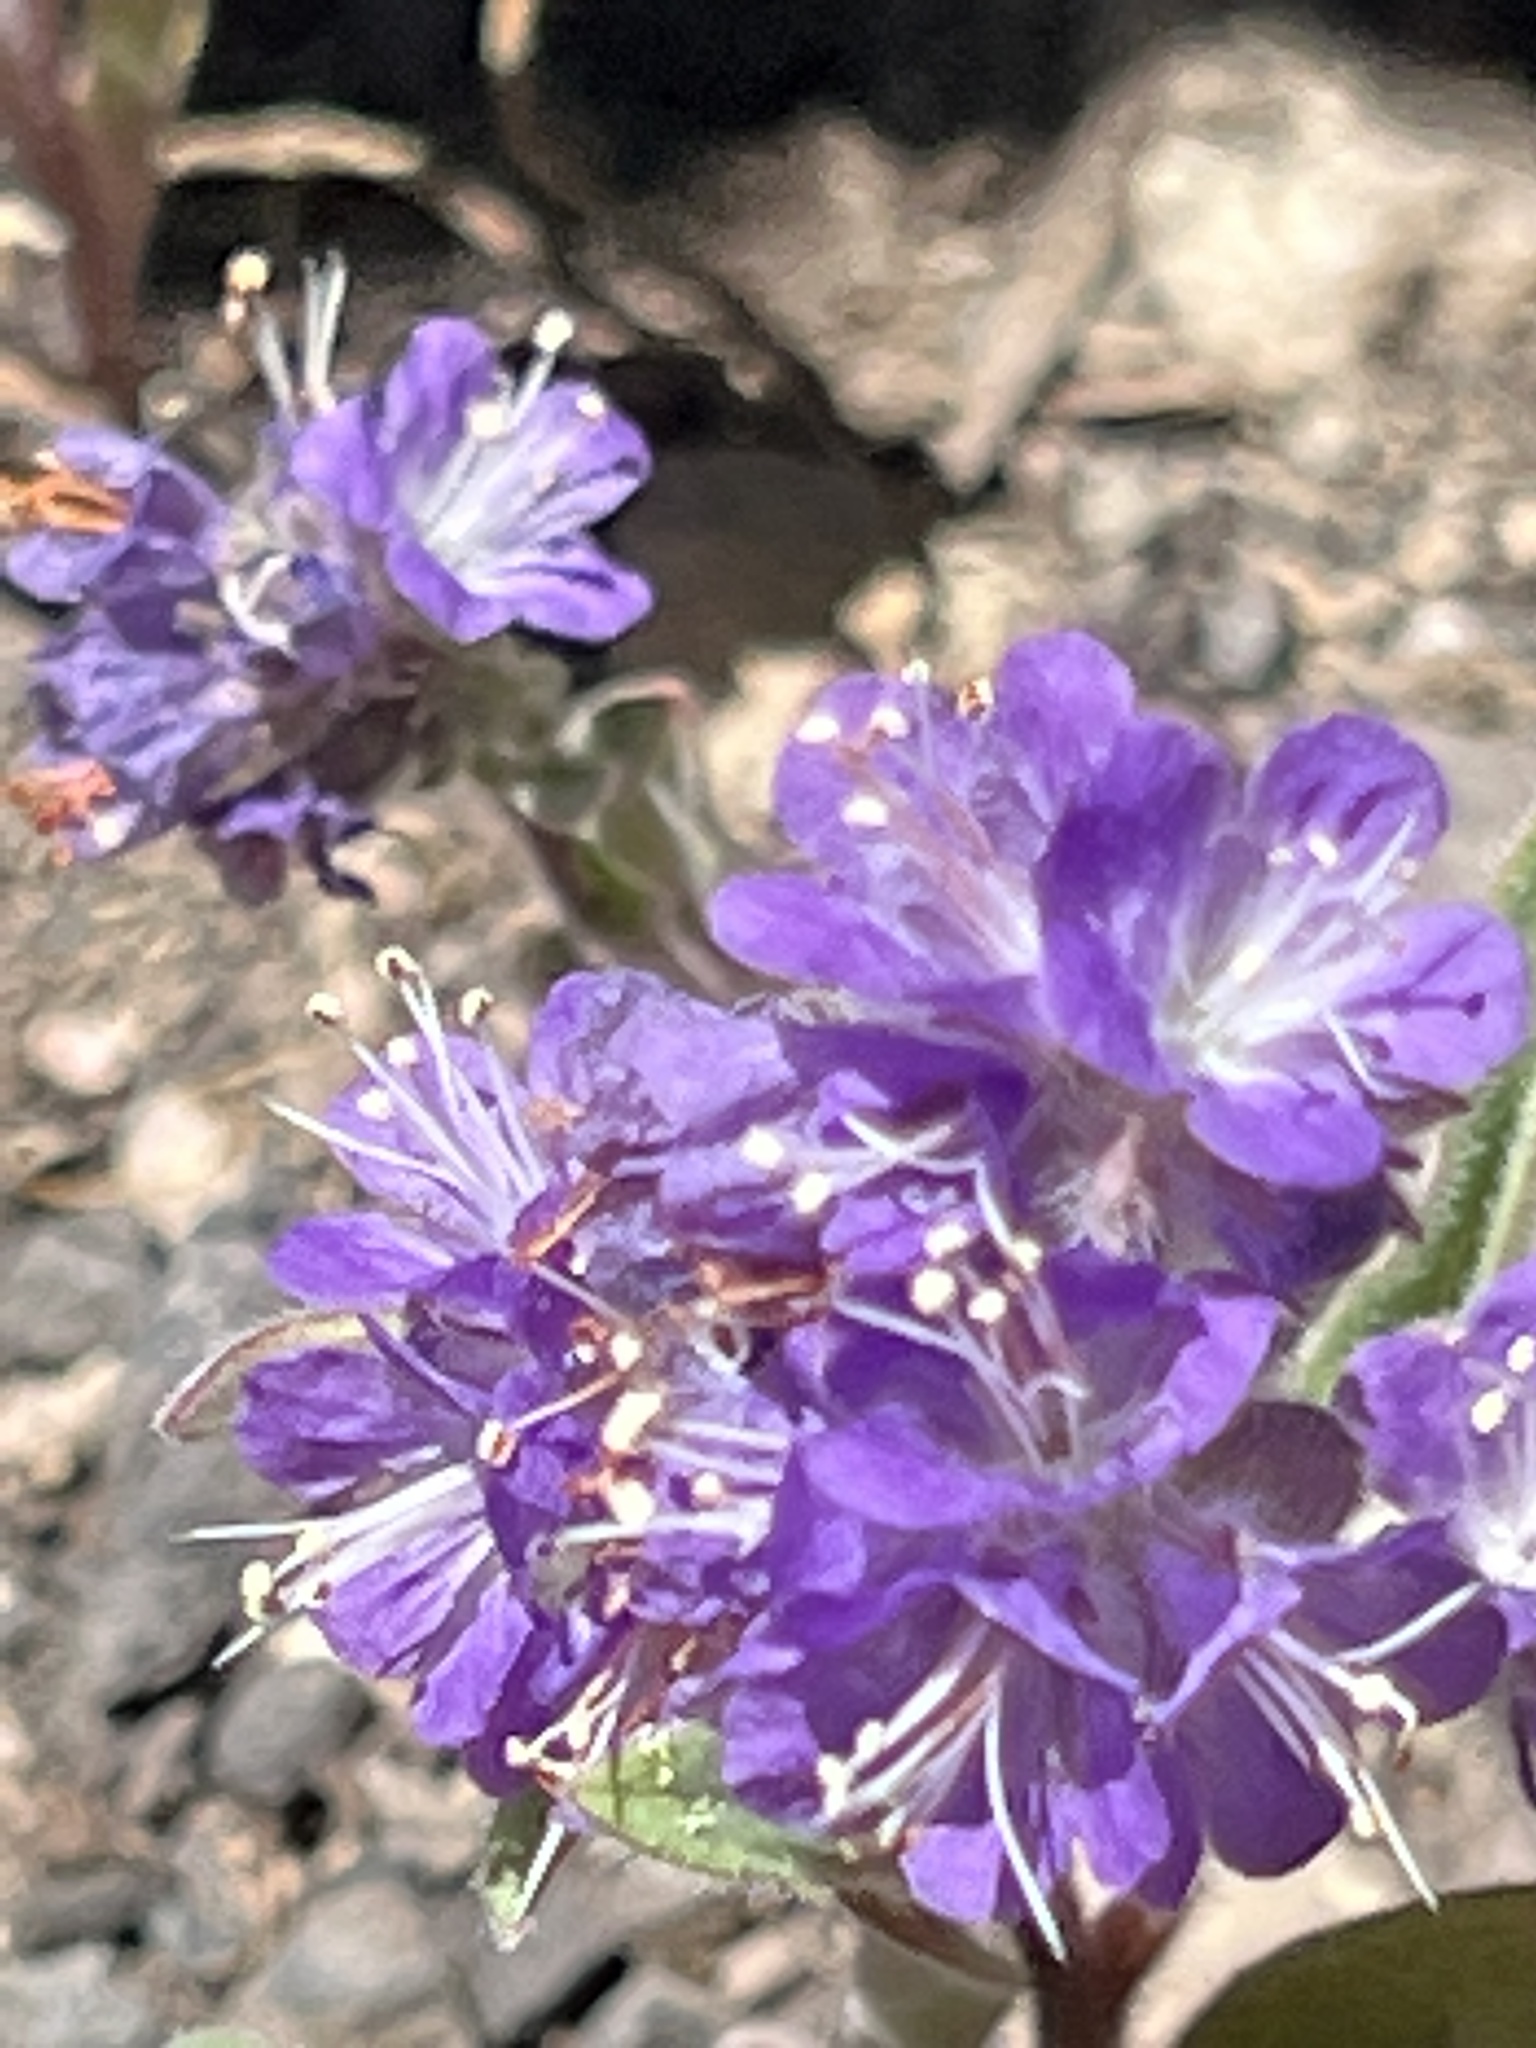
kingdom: Plantae
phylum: Tracheophyta
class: Magnoliopsida
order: Boraginales
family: Hydrophyllaceae
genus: Phacelia
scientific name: Phacelia humilis
